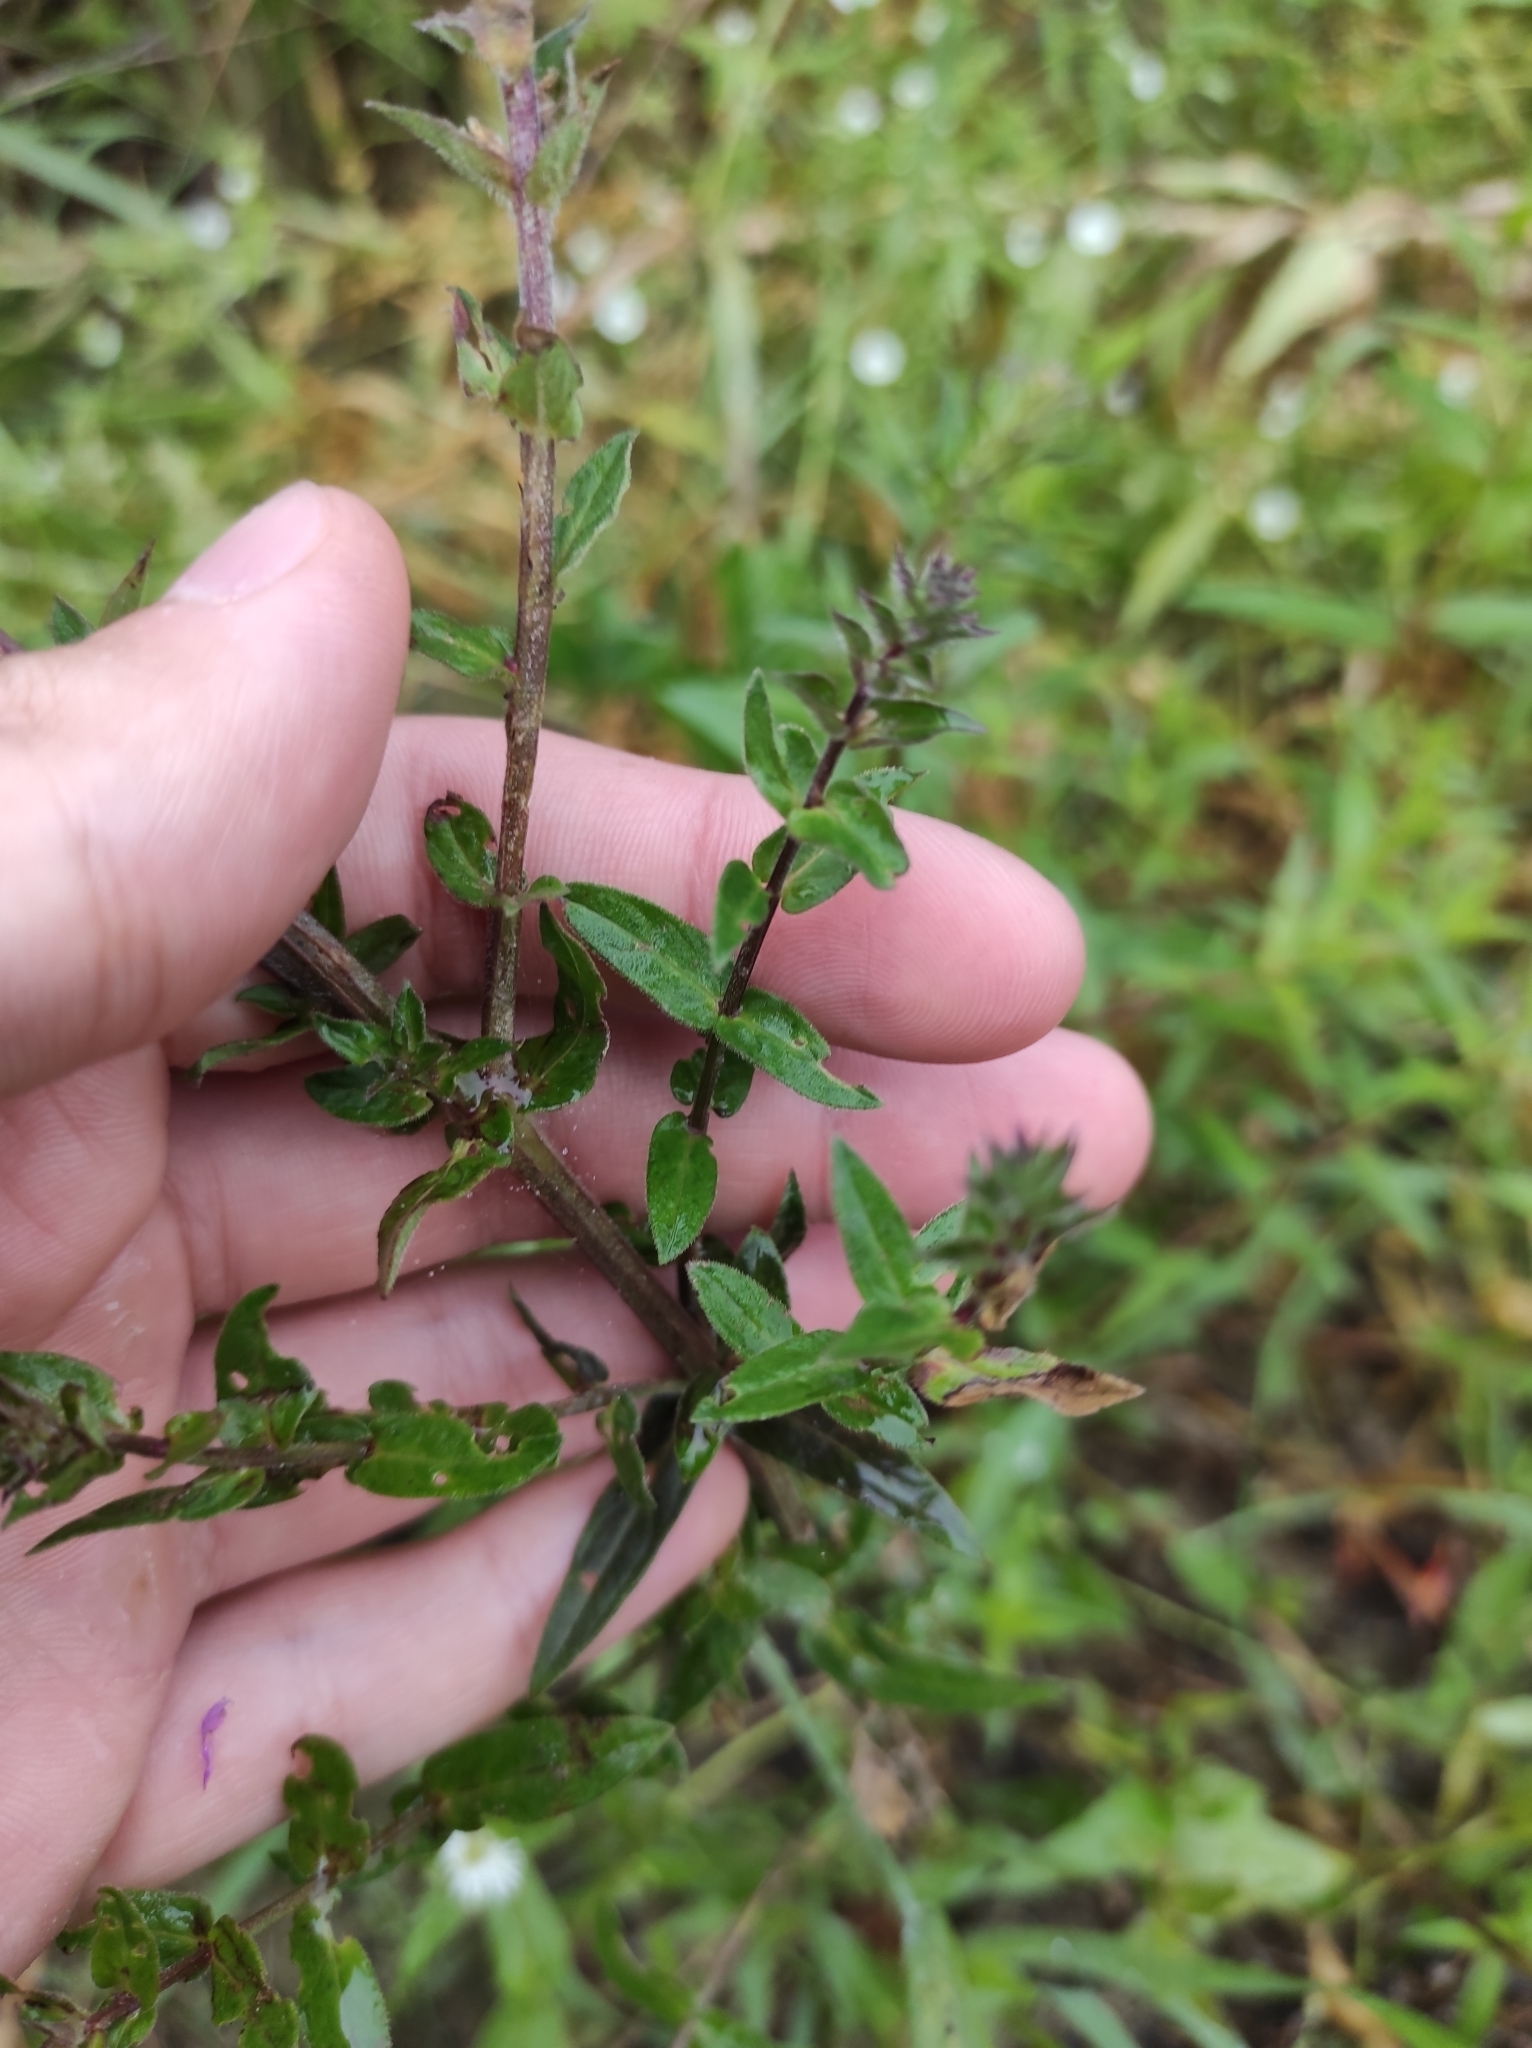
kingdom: Plantae
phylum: Tracheophyta
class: Magnoliopsida
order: Myrtales
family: Lythraceae
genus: Lythrum
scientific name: Lythrum salicaria
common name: Purple loosestrife
